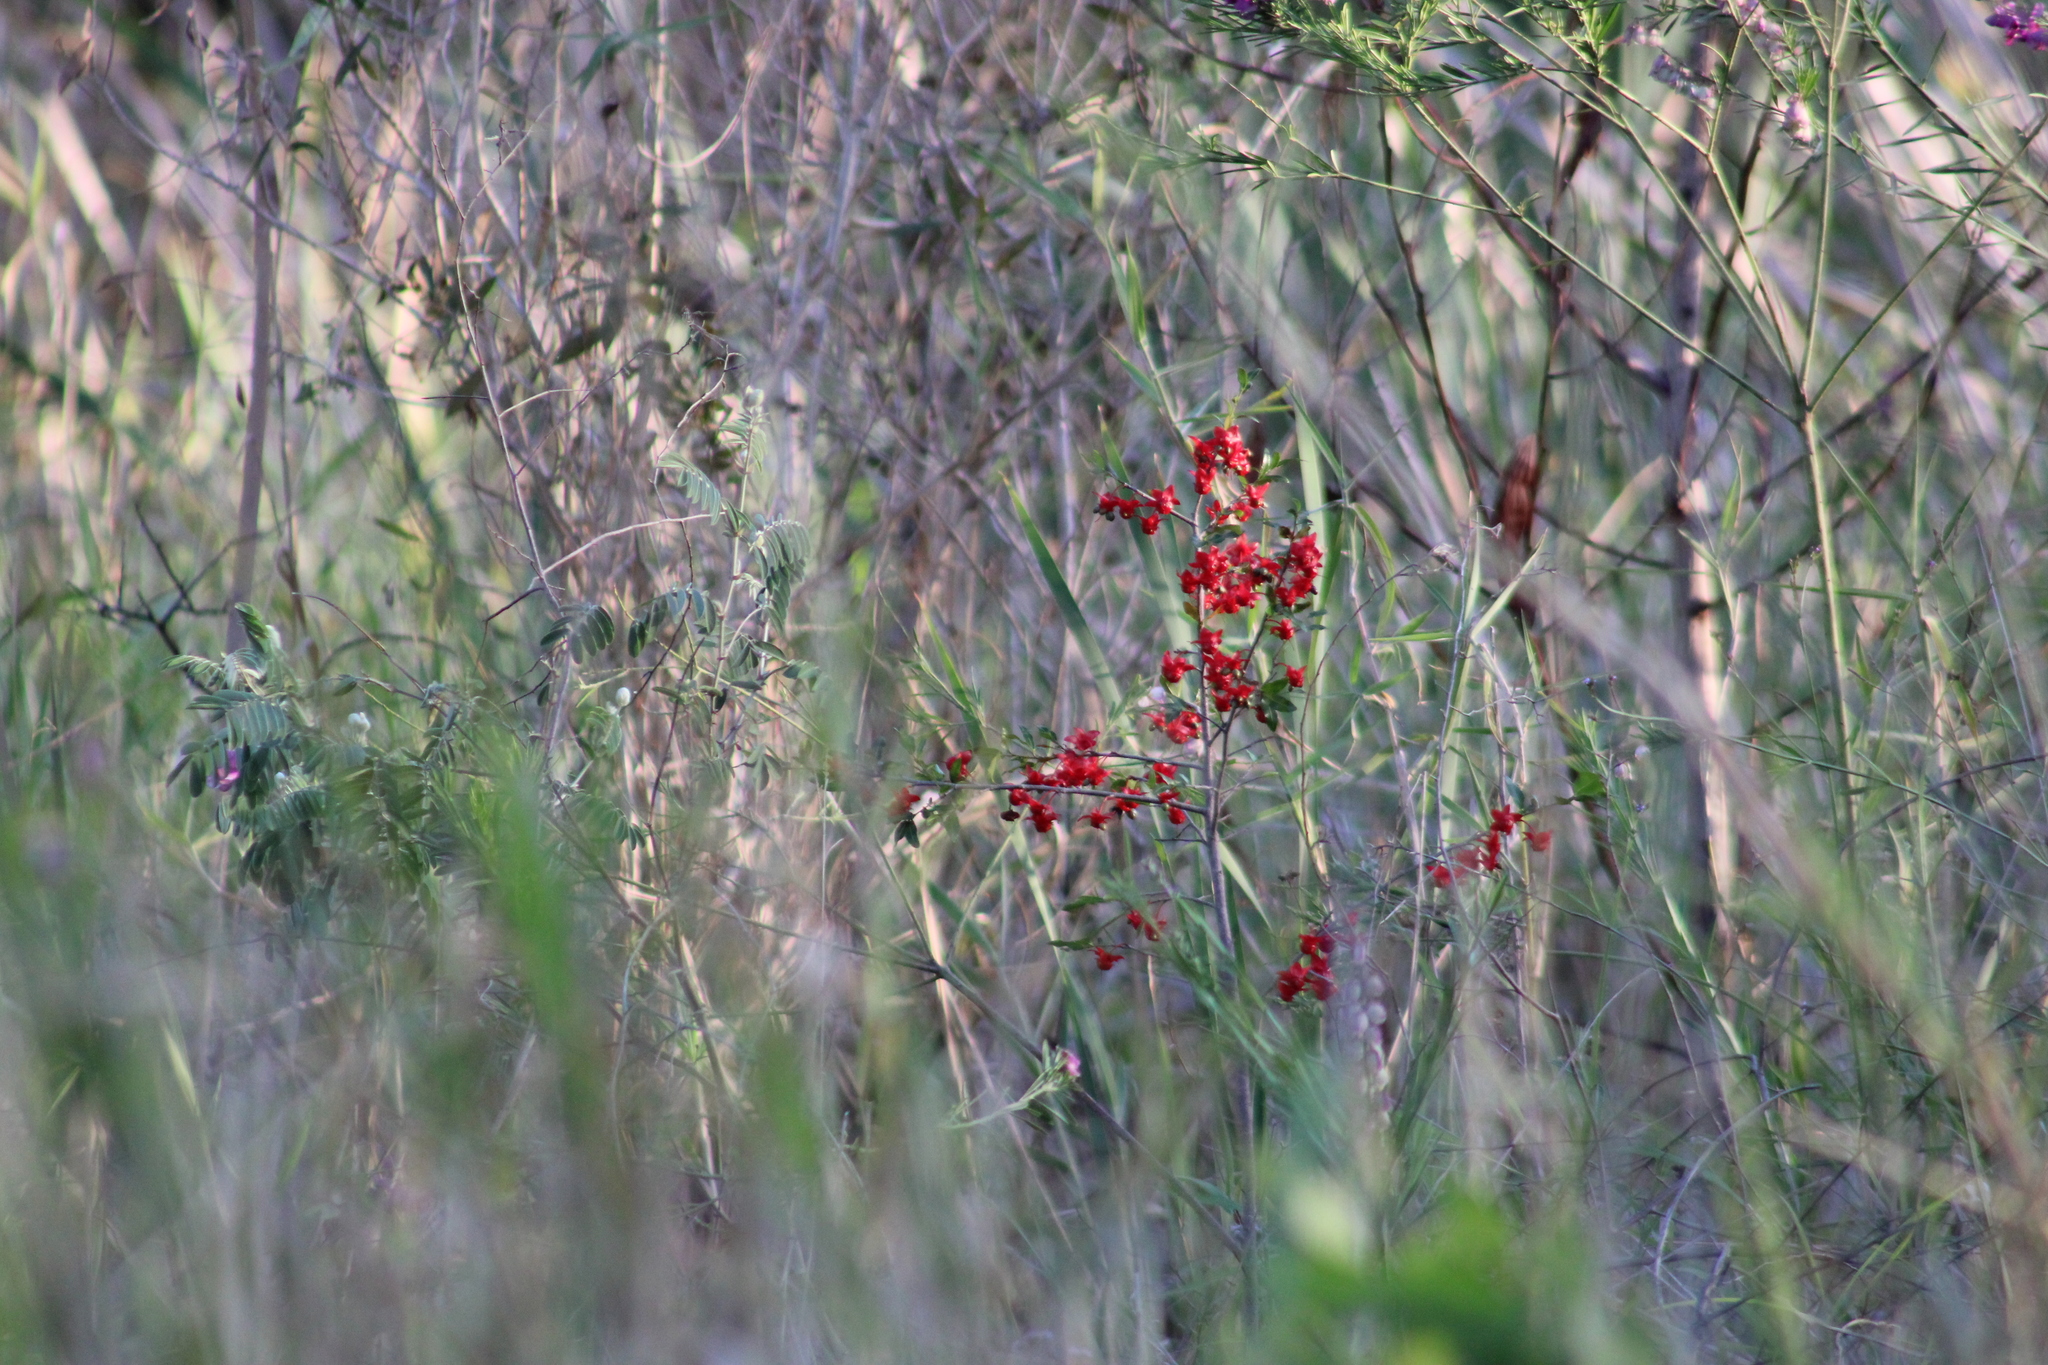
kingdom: Plantae
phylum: Tracheophyta
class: Magnoliopsida
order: Malpighiales
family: Ochnaceae
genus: Ochna
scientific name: Ochna serrulata
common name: Mickey mouse plant
